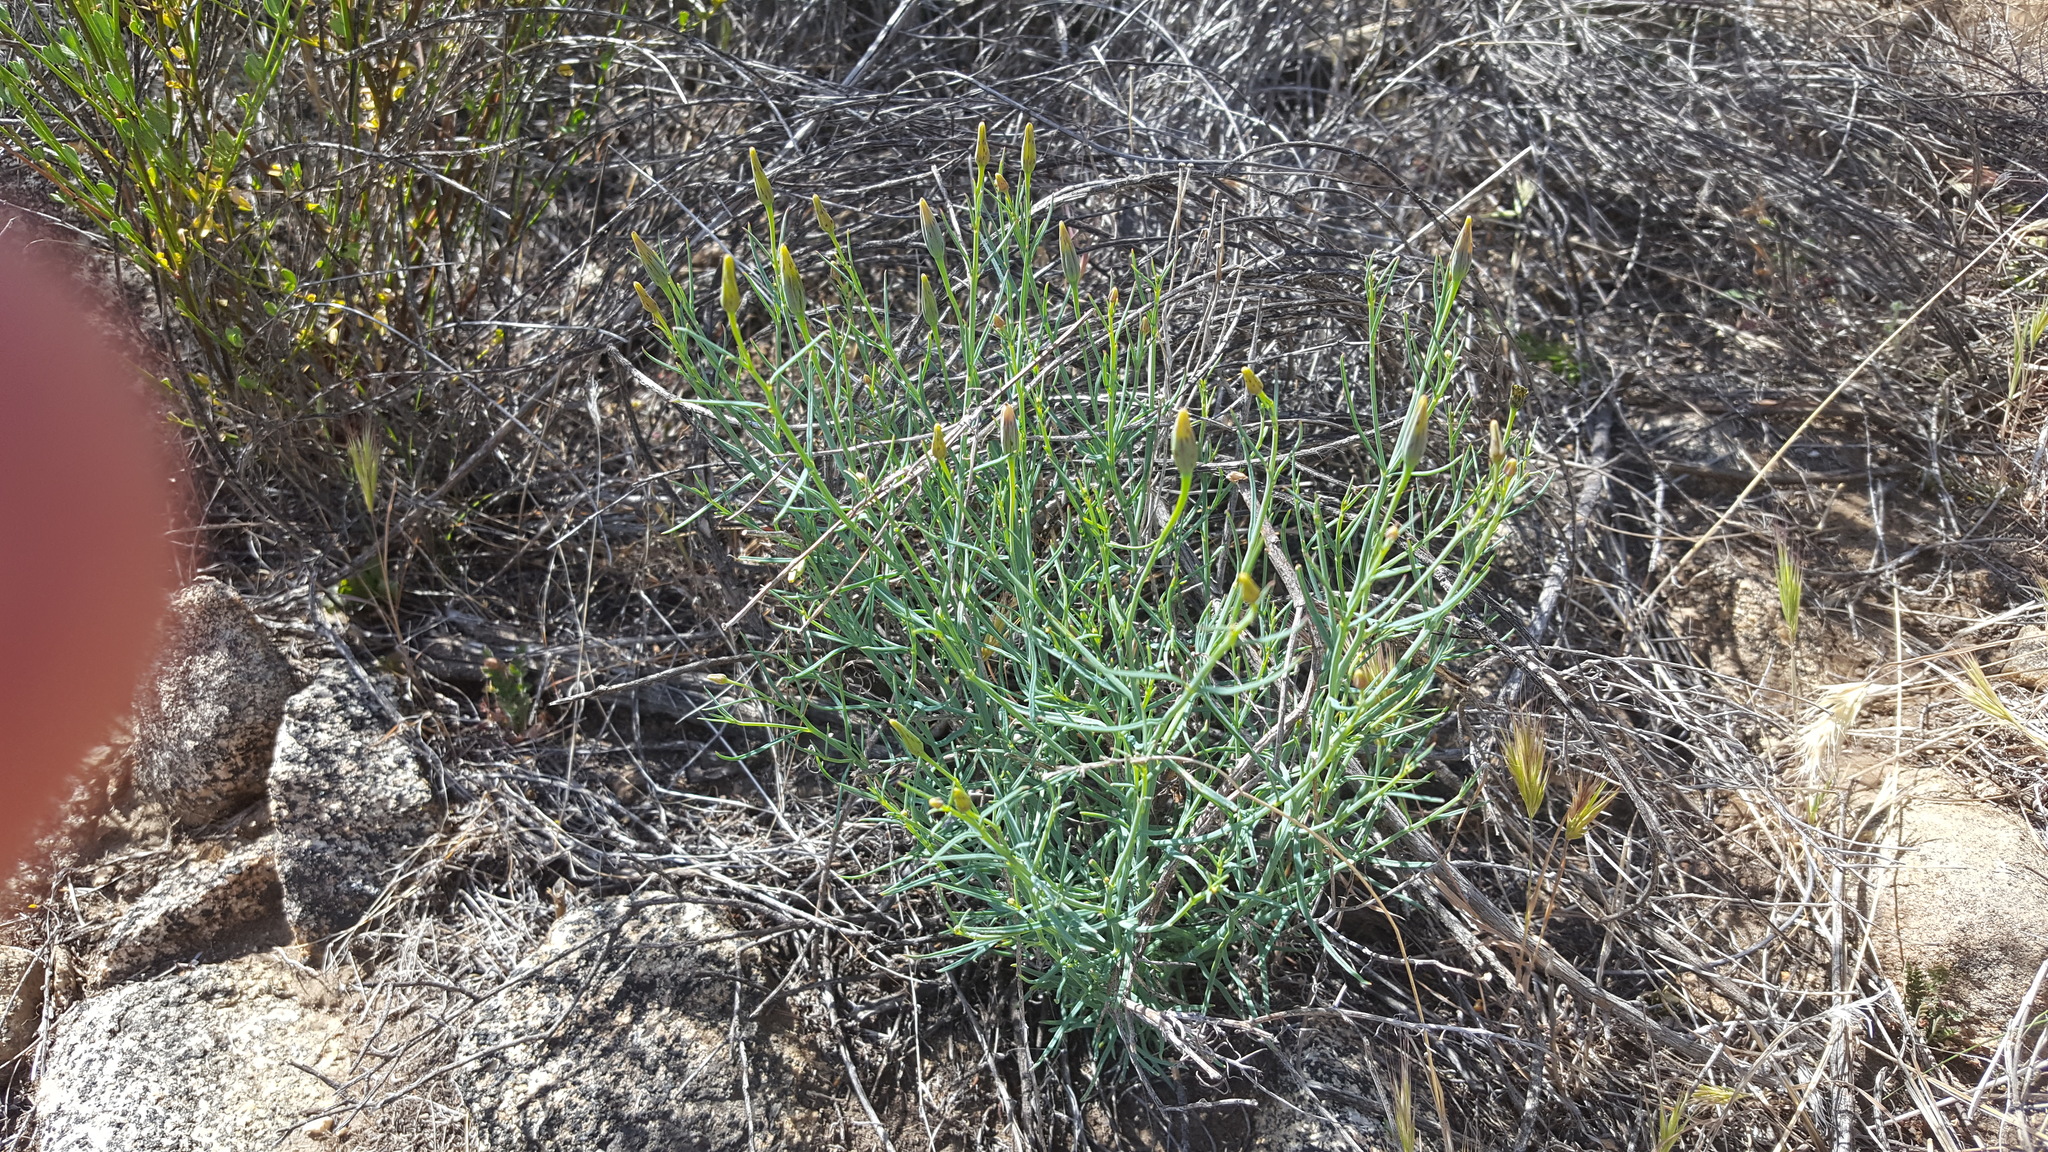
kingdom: Plantae
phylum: Tracheophyta
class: Magnoliopsida
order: Asterales
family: Asteraceae
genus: Porophyllum
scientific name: Porophyllum gracile
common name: Odora
